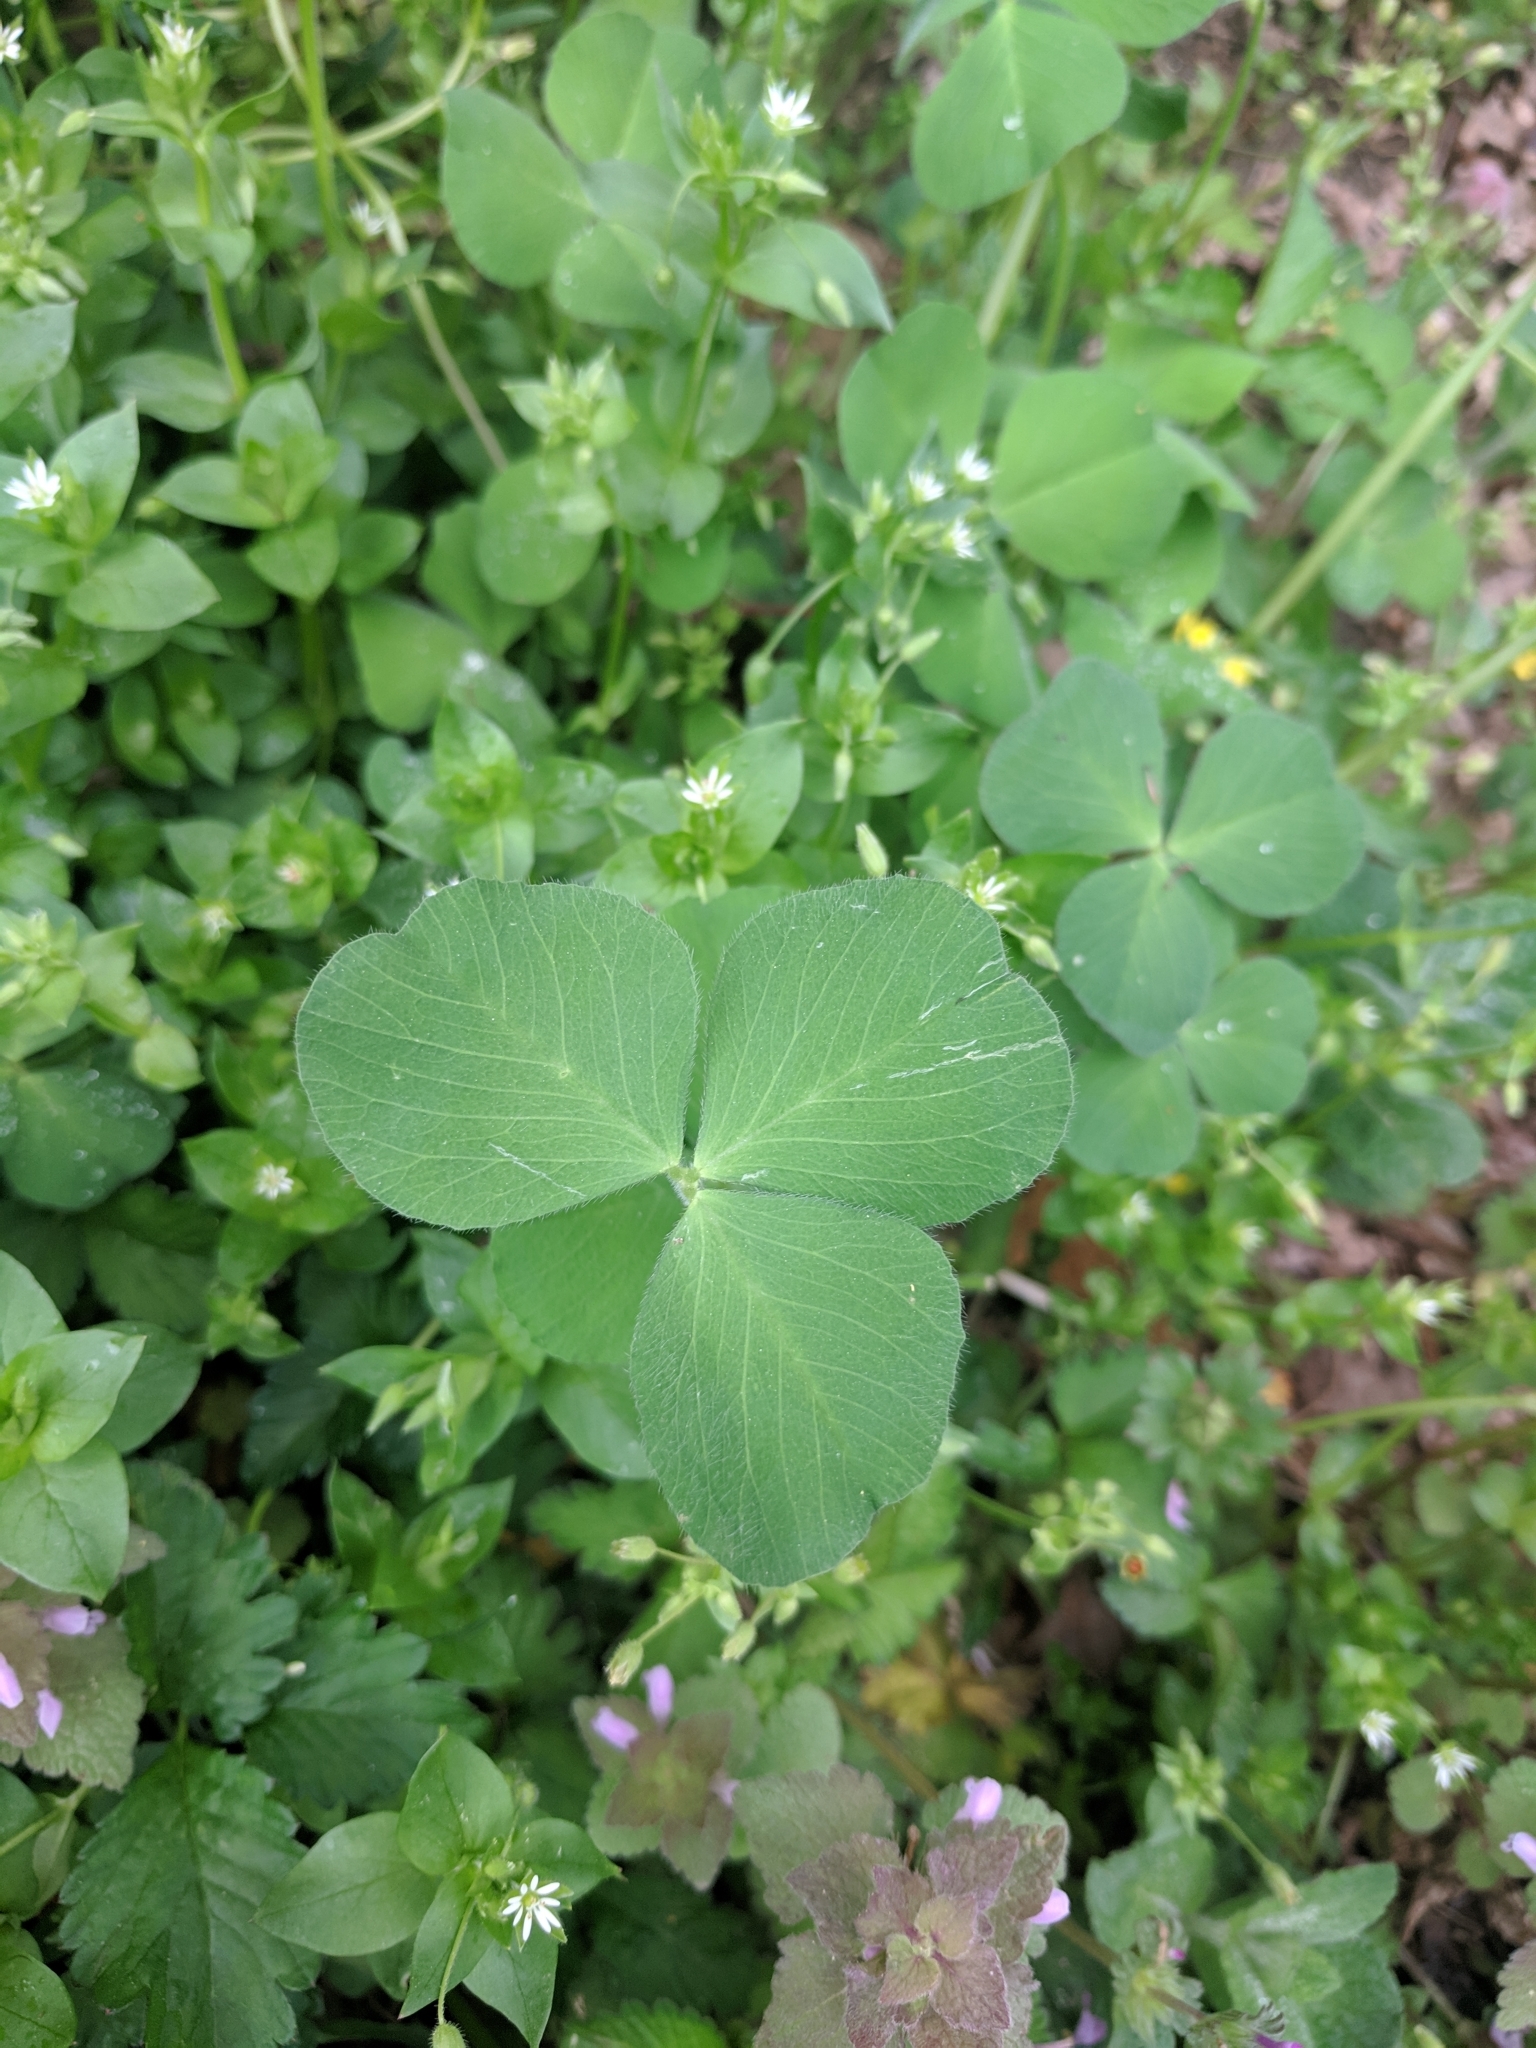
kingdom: Plantae
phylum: Tracheophyta
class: Magnoliopsida
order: Fabales
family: Fabaceae
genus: Trifolium
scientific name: Trifolium pratense
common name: Red clover
